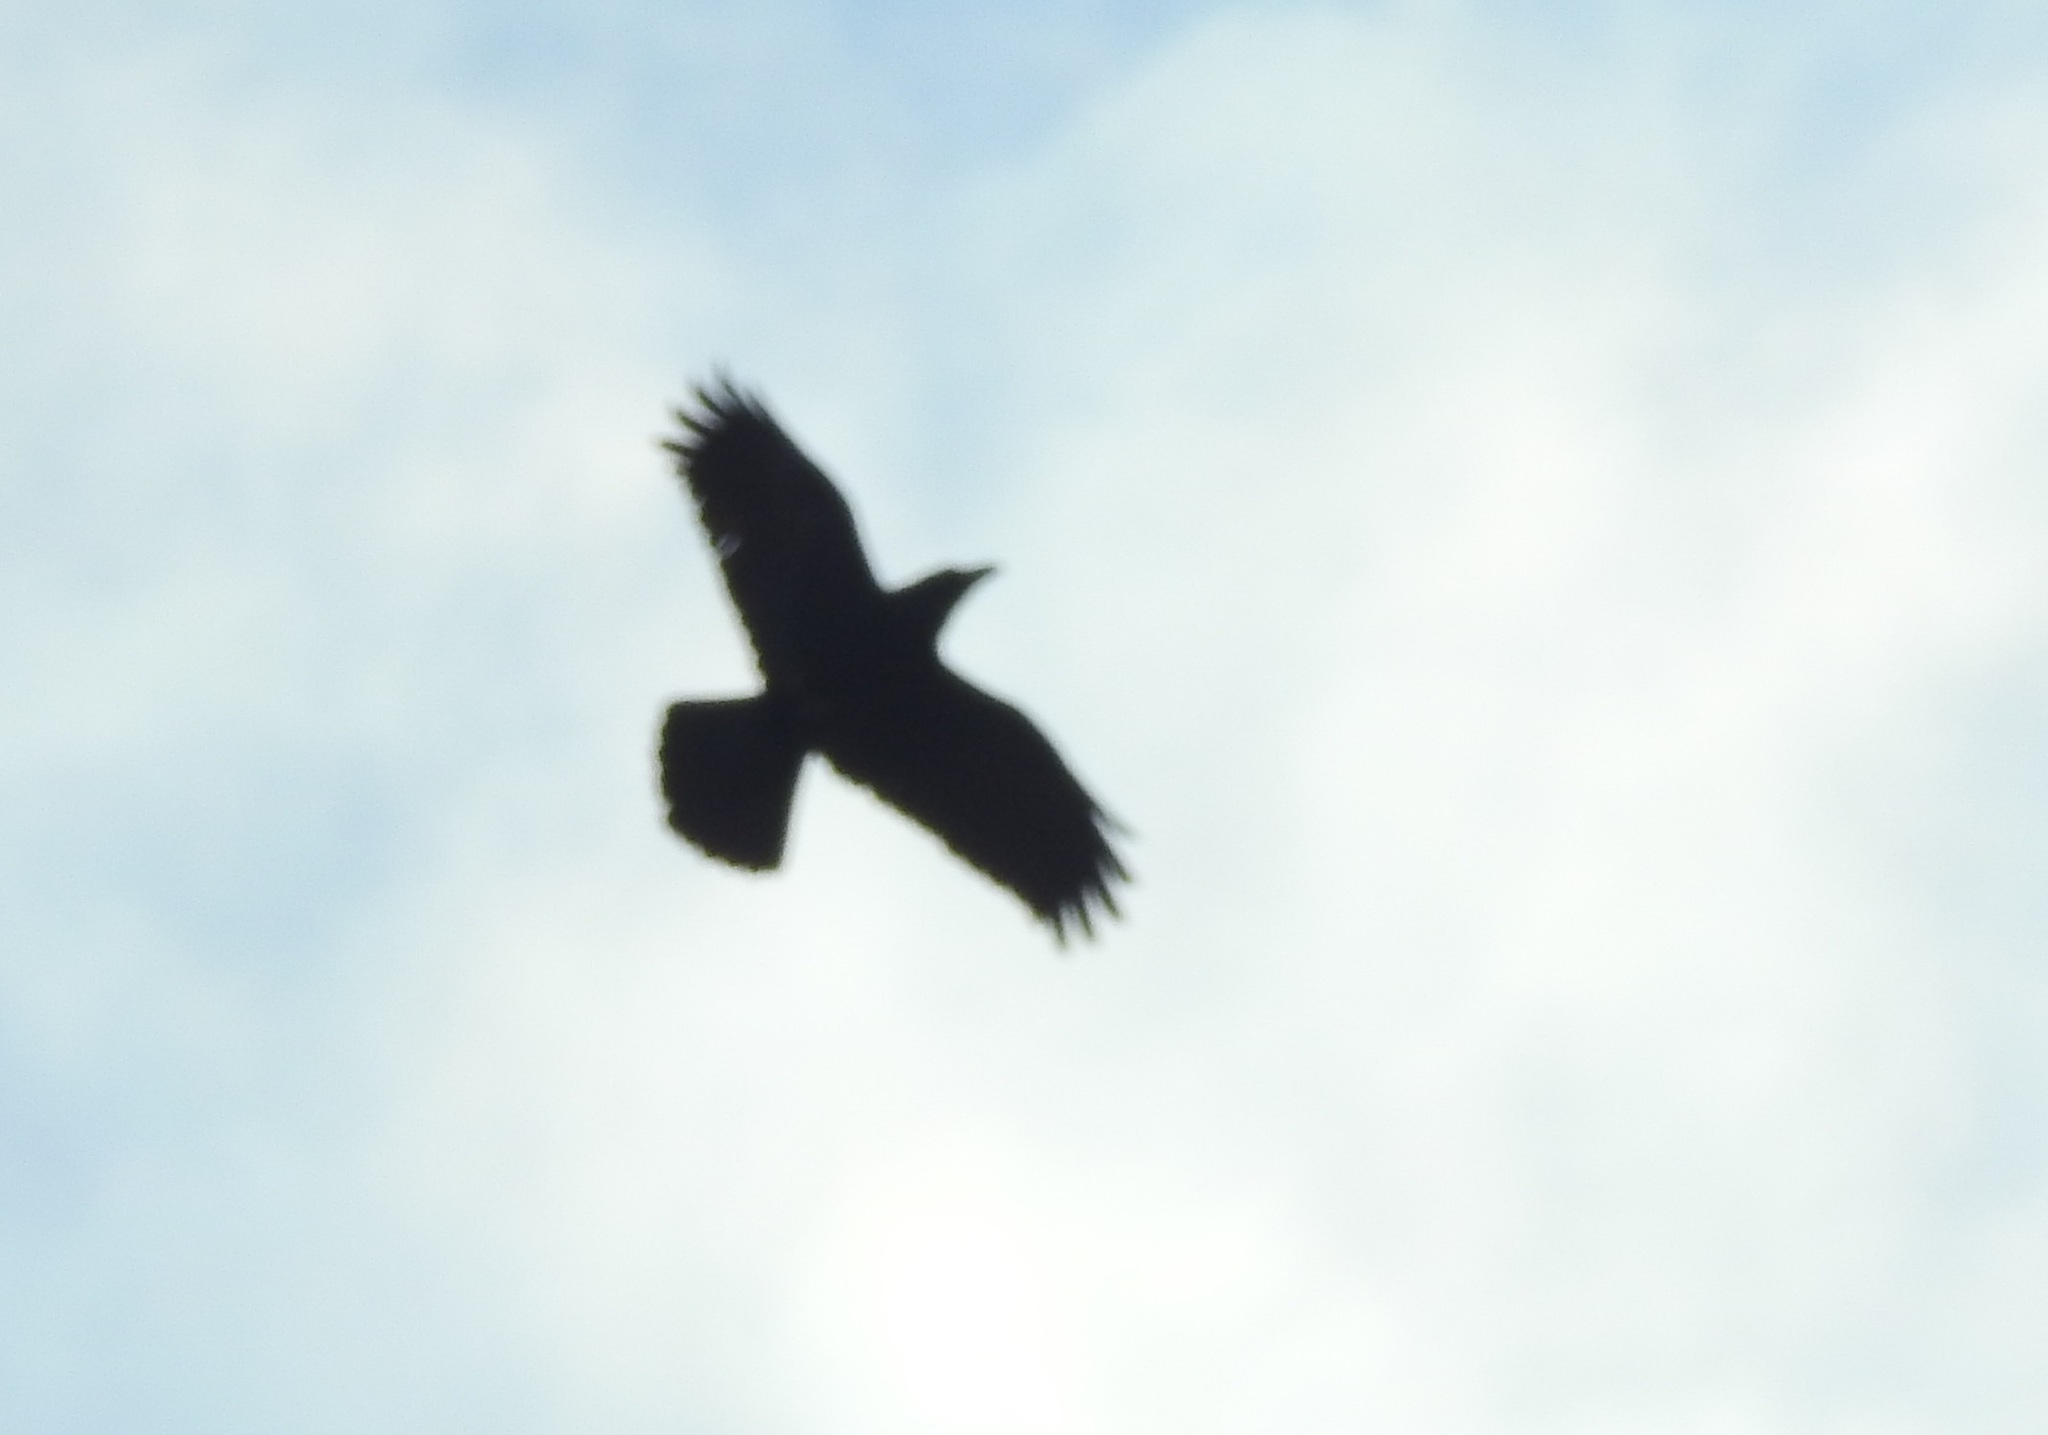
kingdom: Animalia
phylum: Chordata
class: Aves
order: Passeriformes
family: Corvidae
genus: Corvus
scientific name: Corvus corax
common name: Common raven
